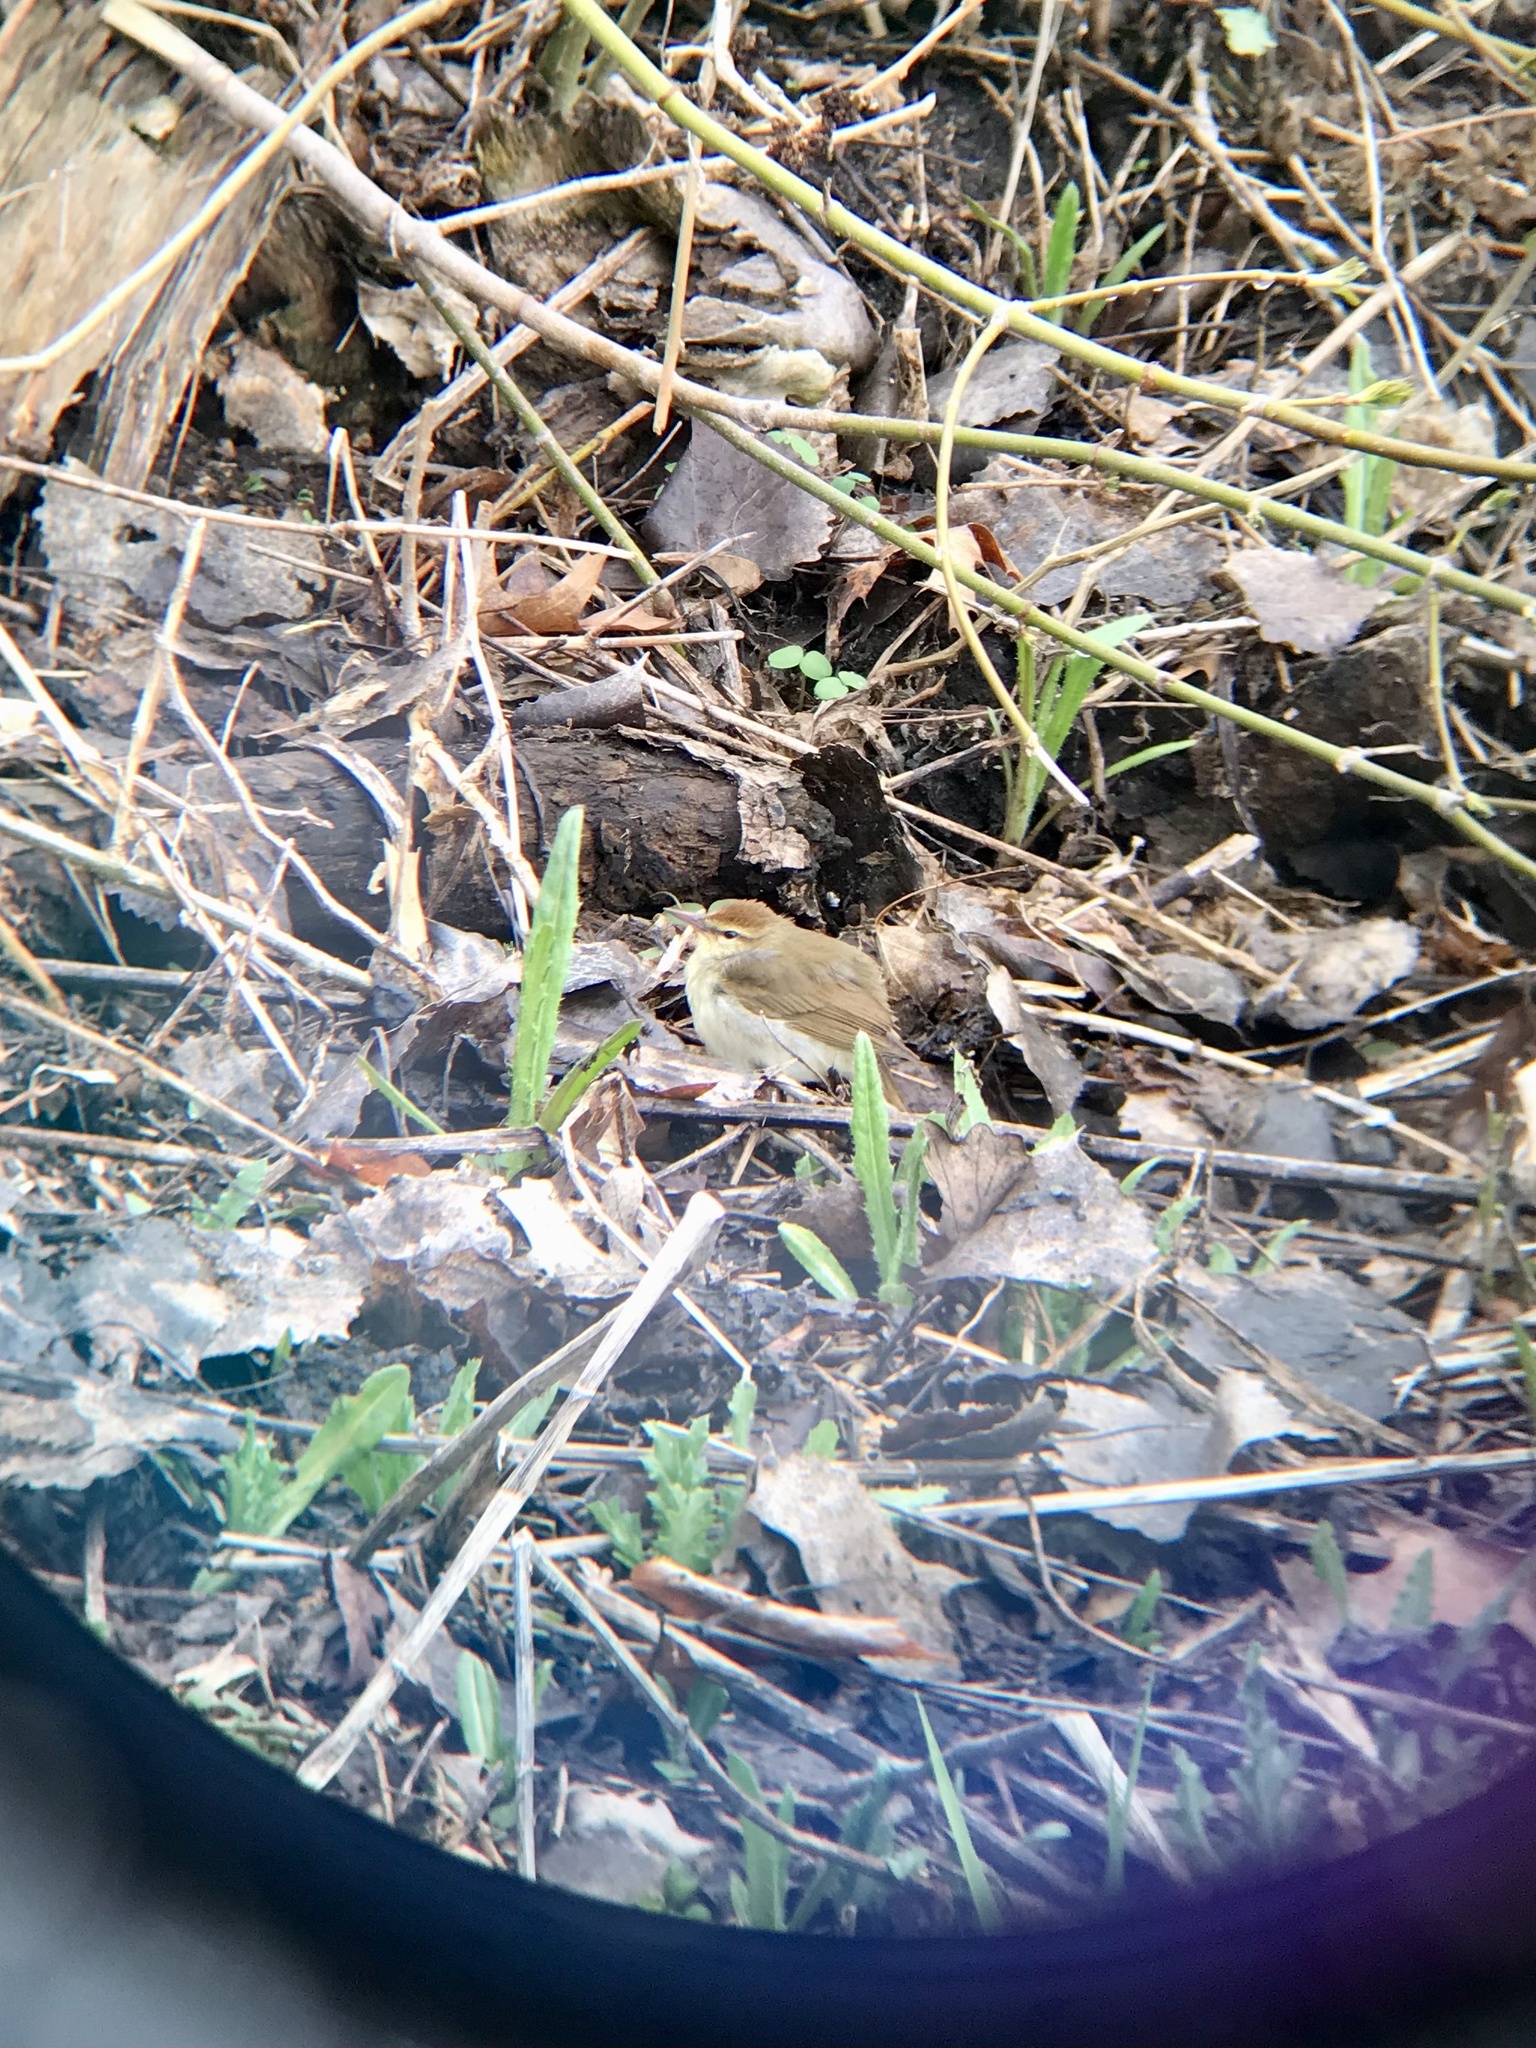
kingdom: Animalia
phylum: Chordata
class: Aves
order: Passeriformes
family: Parulidae
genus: Limnothlypis
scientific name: Limnothlypis swainsonii
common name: Swainson's warbler
